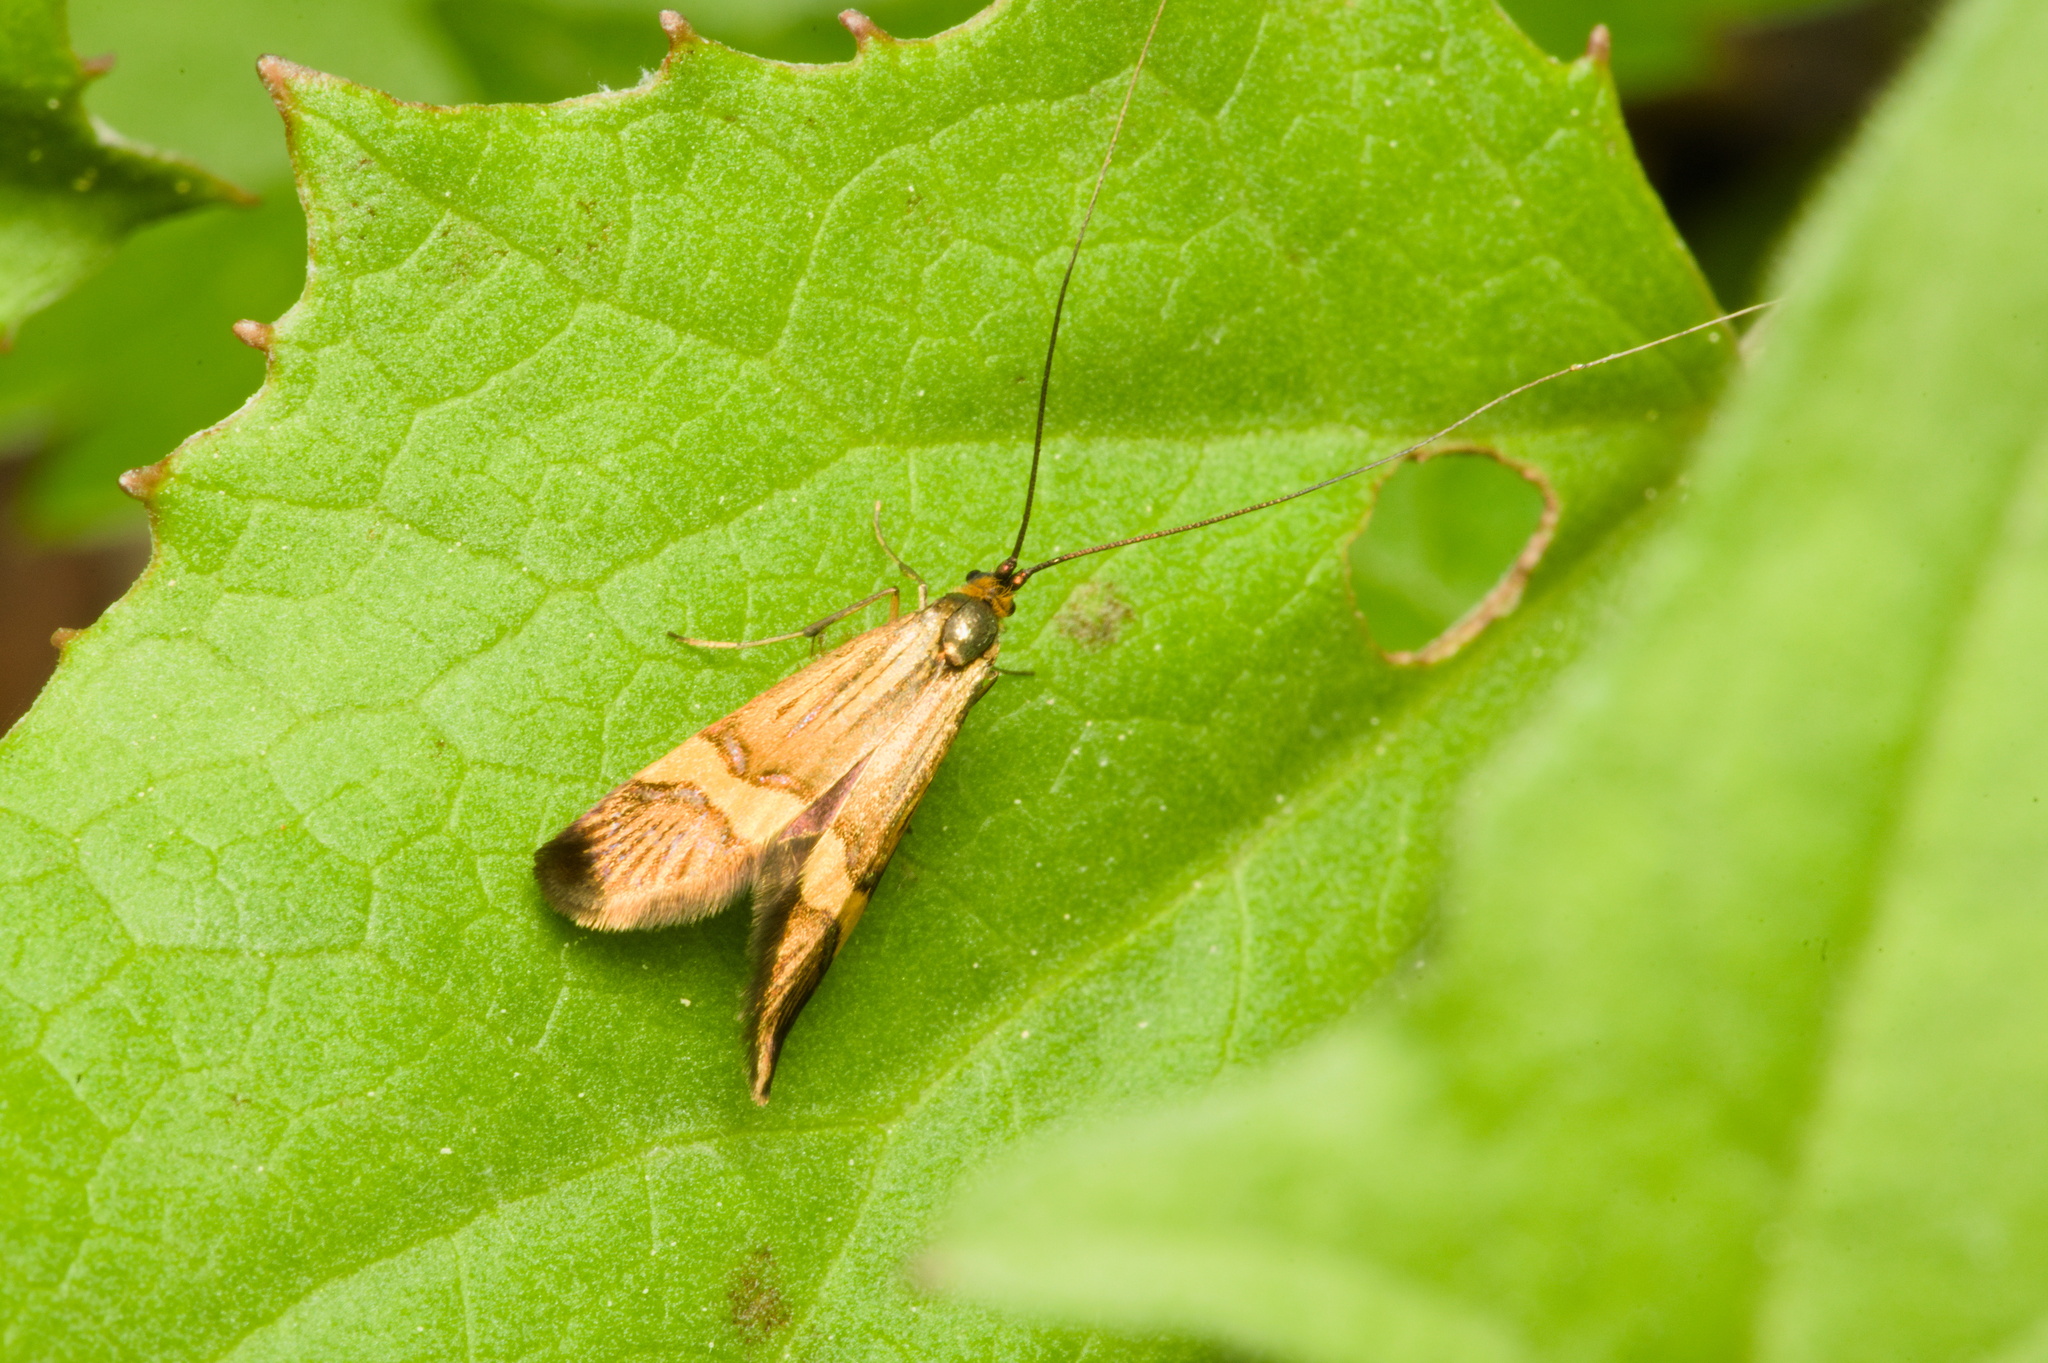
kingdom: Animalia
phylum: Arthropoda
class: Insecta
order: Lepidoptera
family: Adelidae
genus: Nemophora
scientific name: Nemophora
